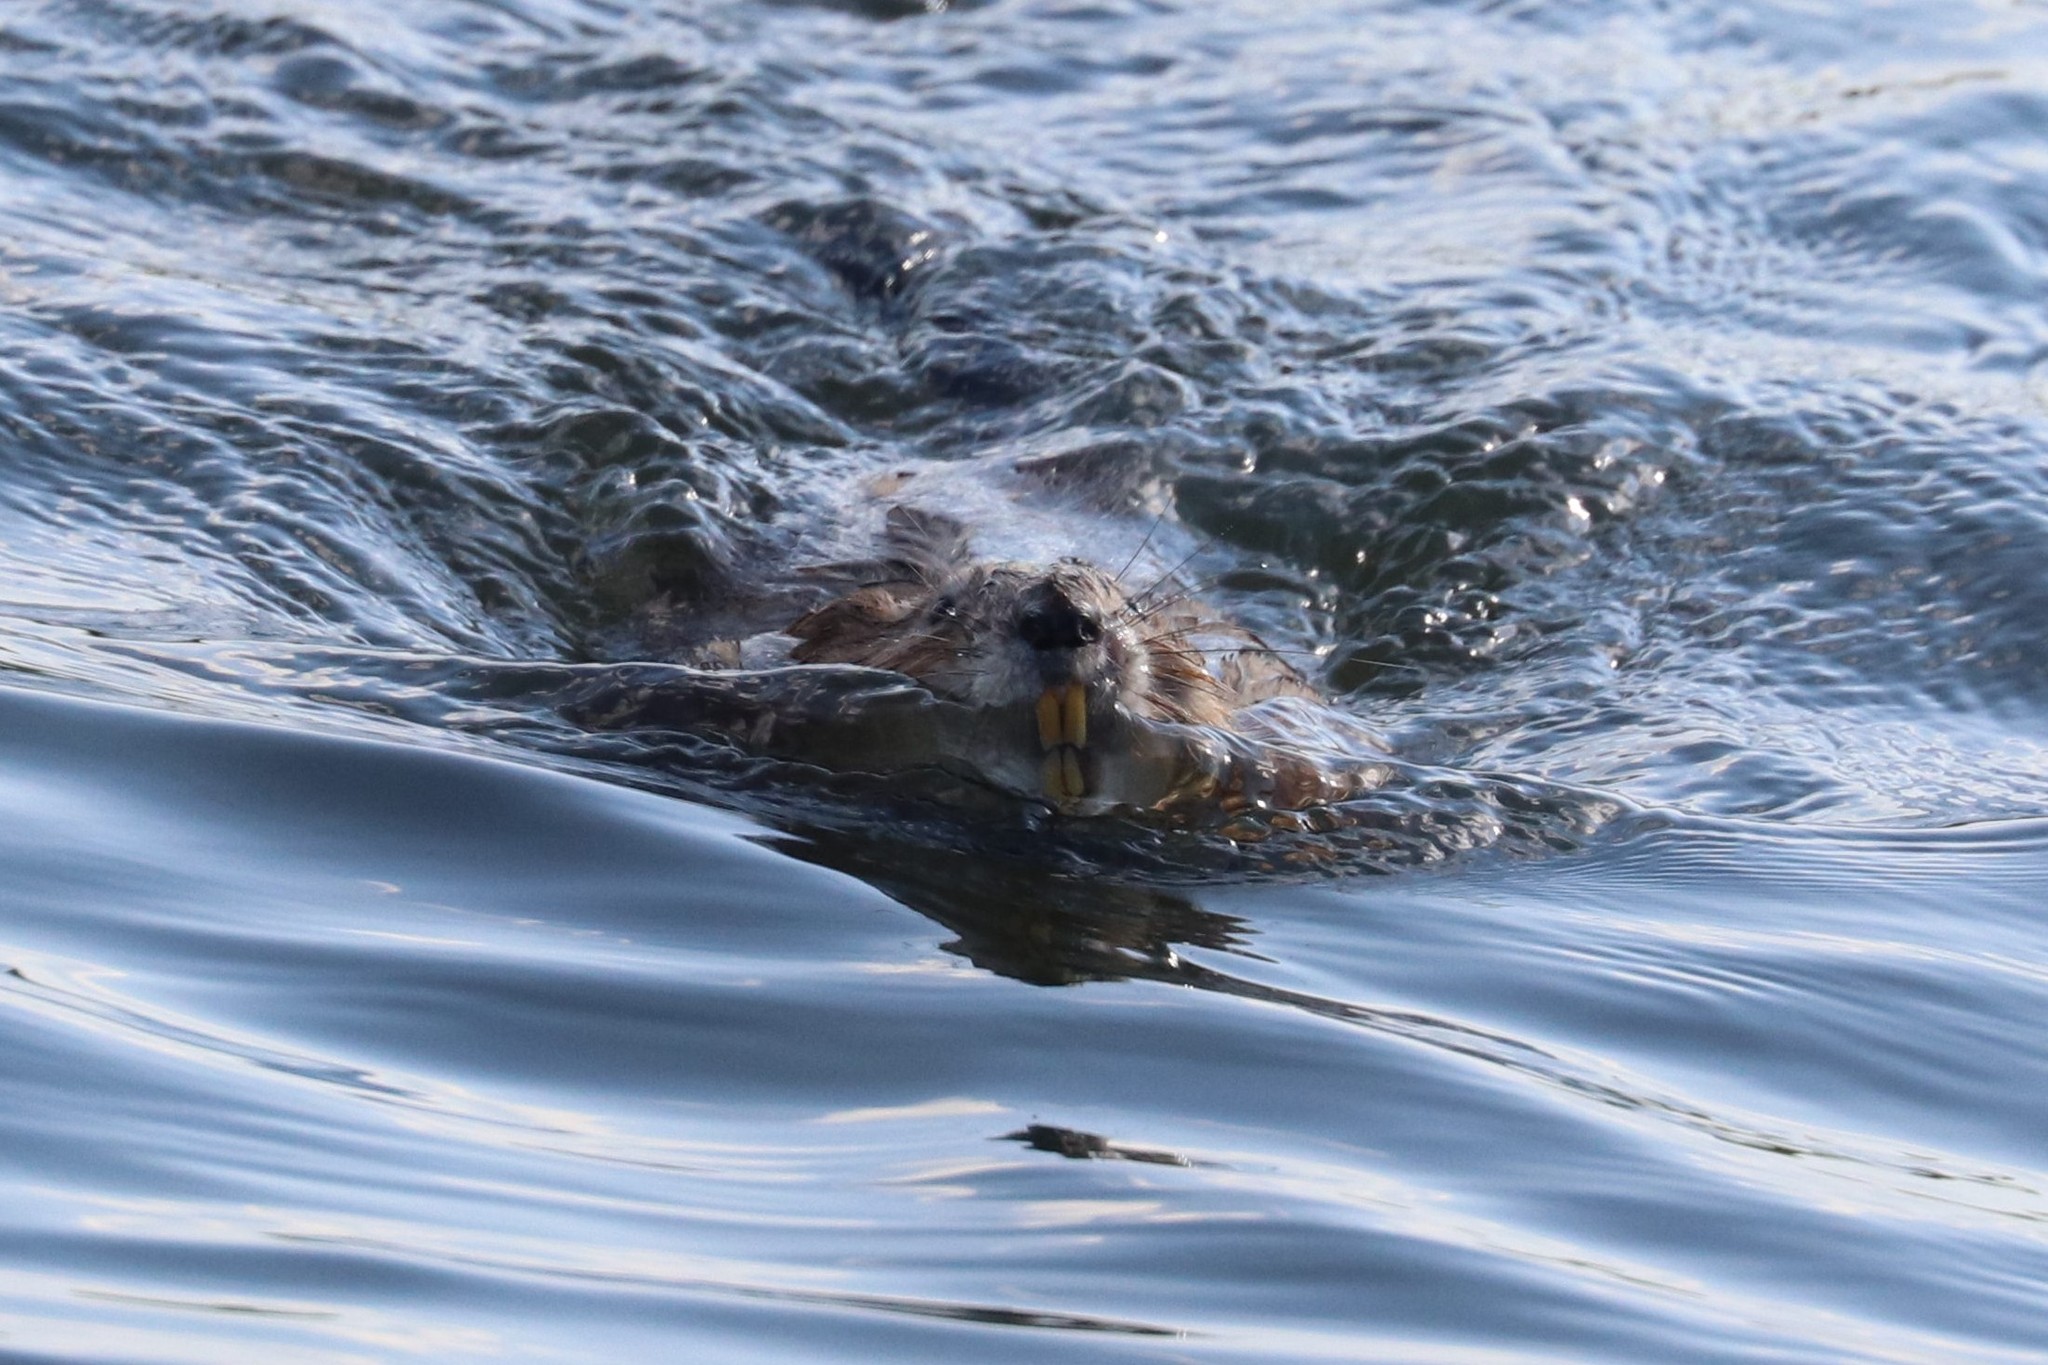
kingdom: Animalia
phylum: Chordata
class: Mammalia
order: Rodentia
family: Cricetidae
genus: Ondatra
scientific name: Ondatra zibethicus
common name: Muskrat
